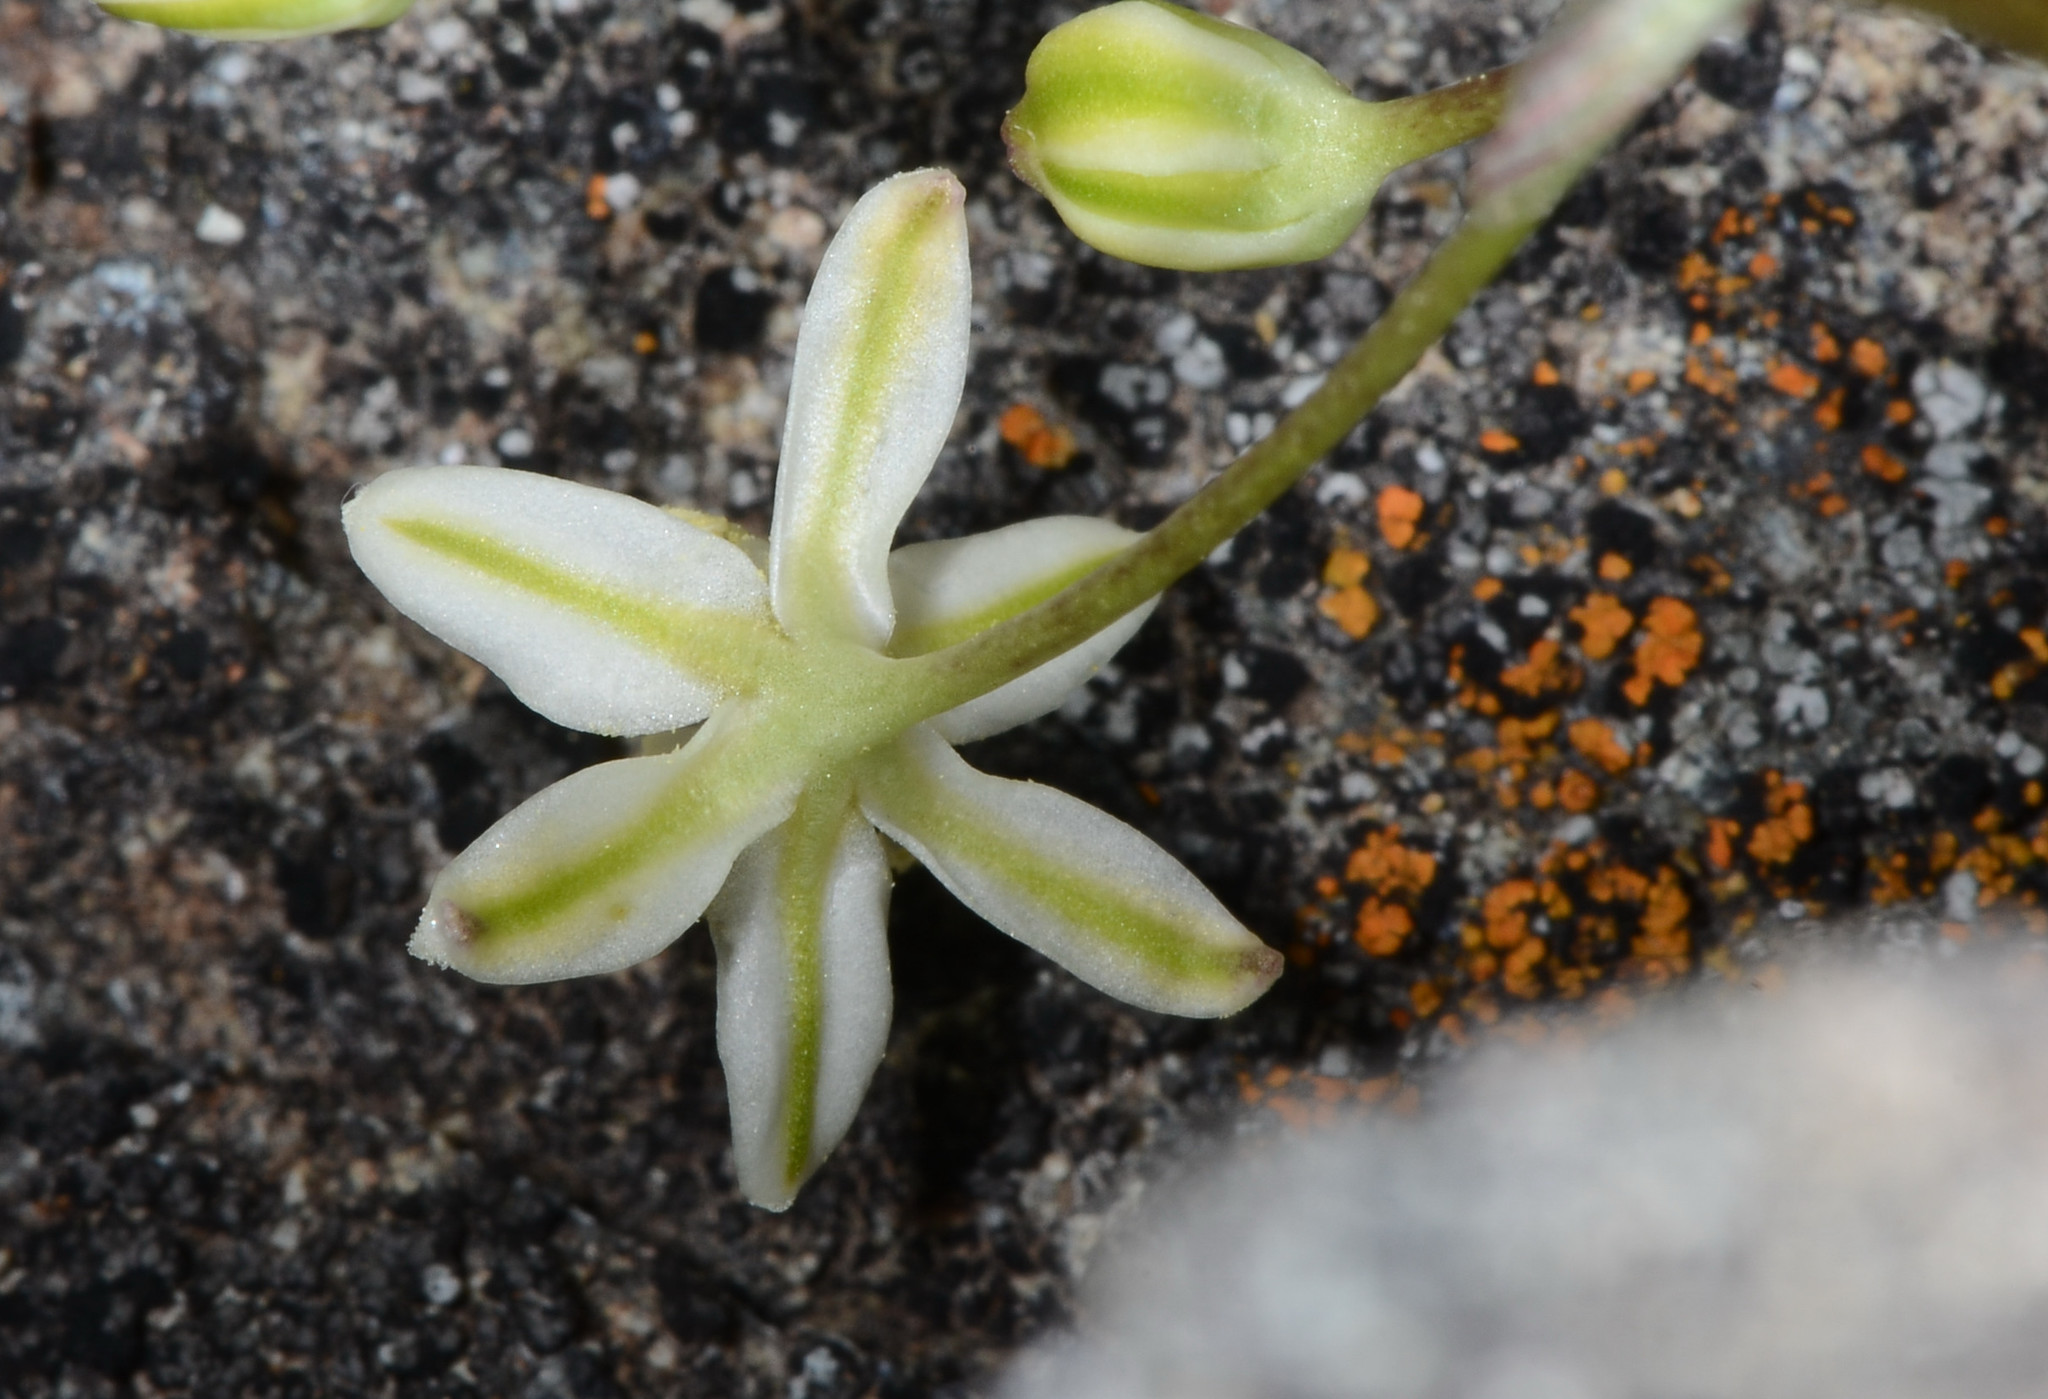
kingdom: Plantae
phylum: Tracheophyta
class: Liliopsida
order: Asparagales
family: Asparagaceae
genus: Muilla
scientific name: Muilla maritima
